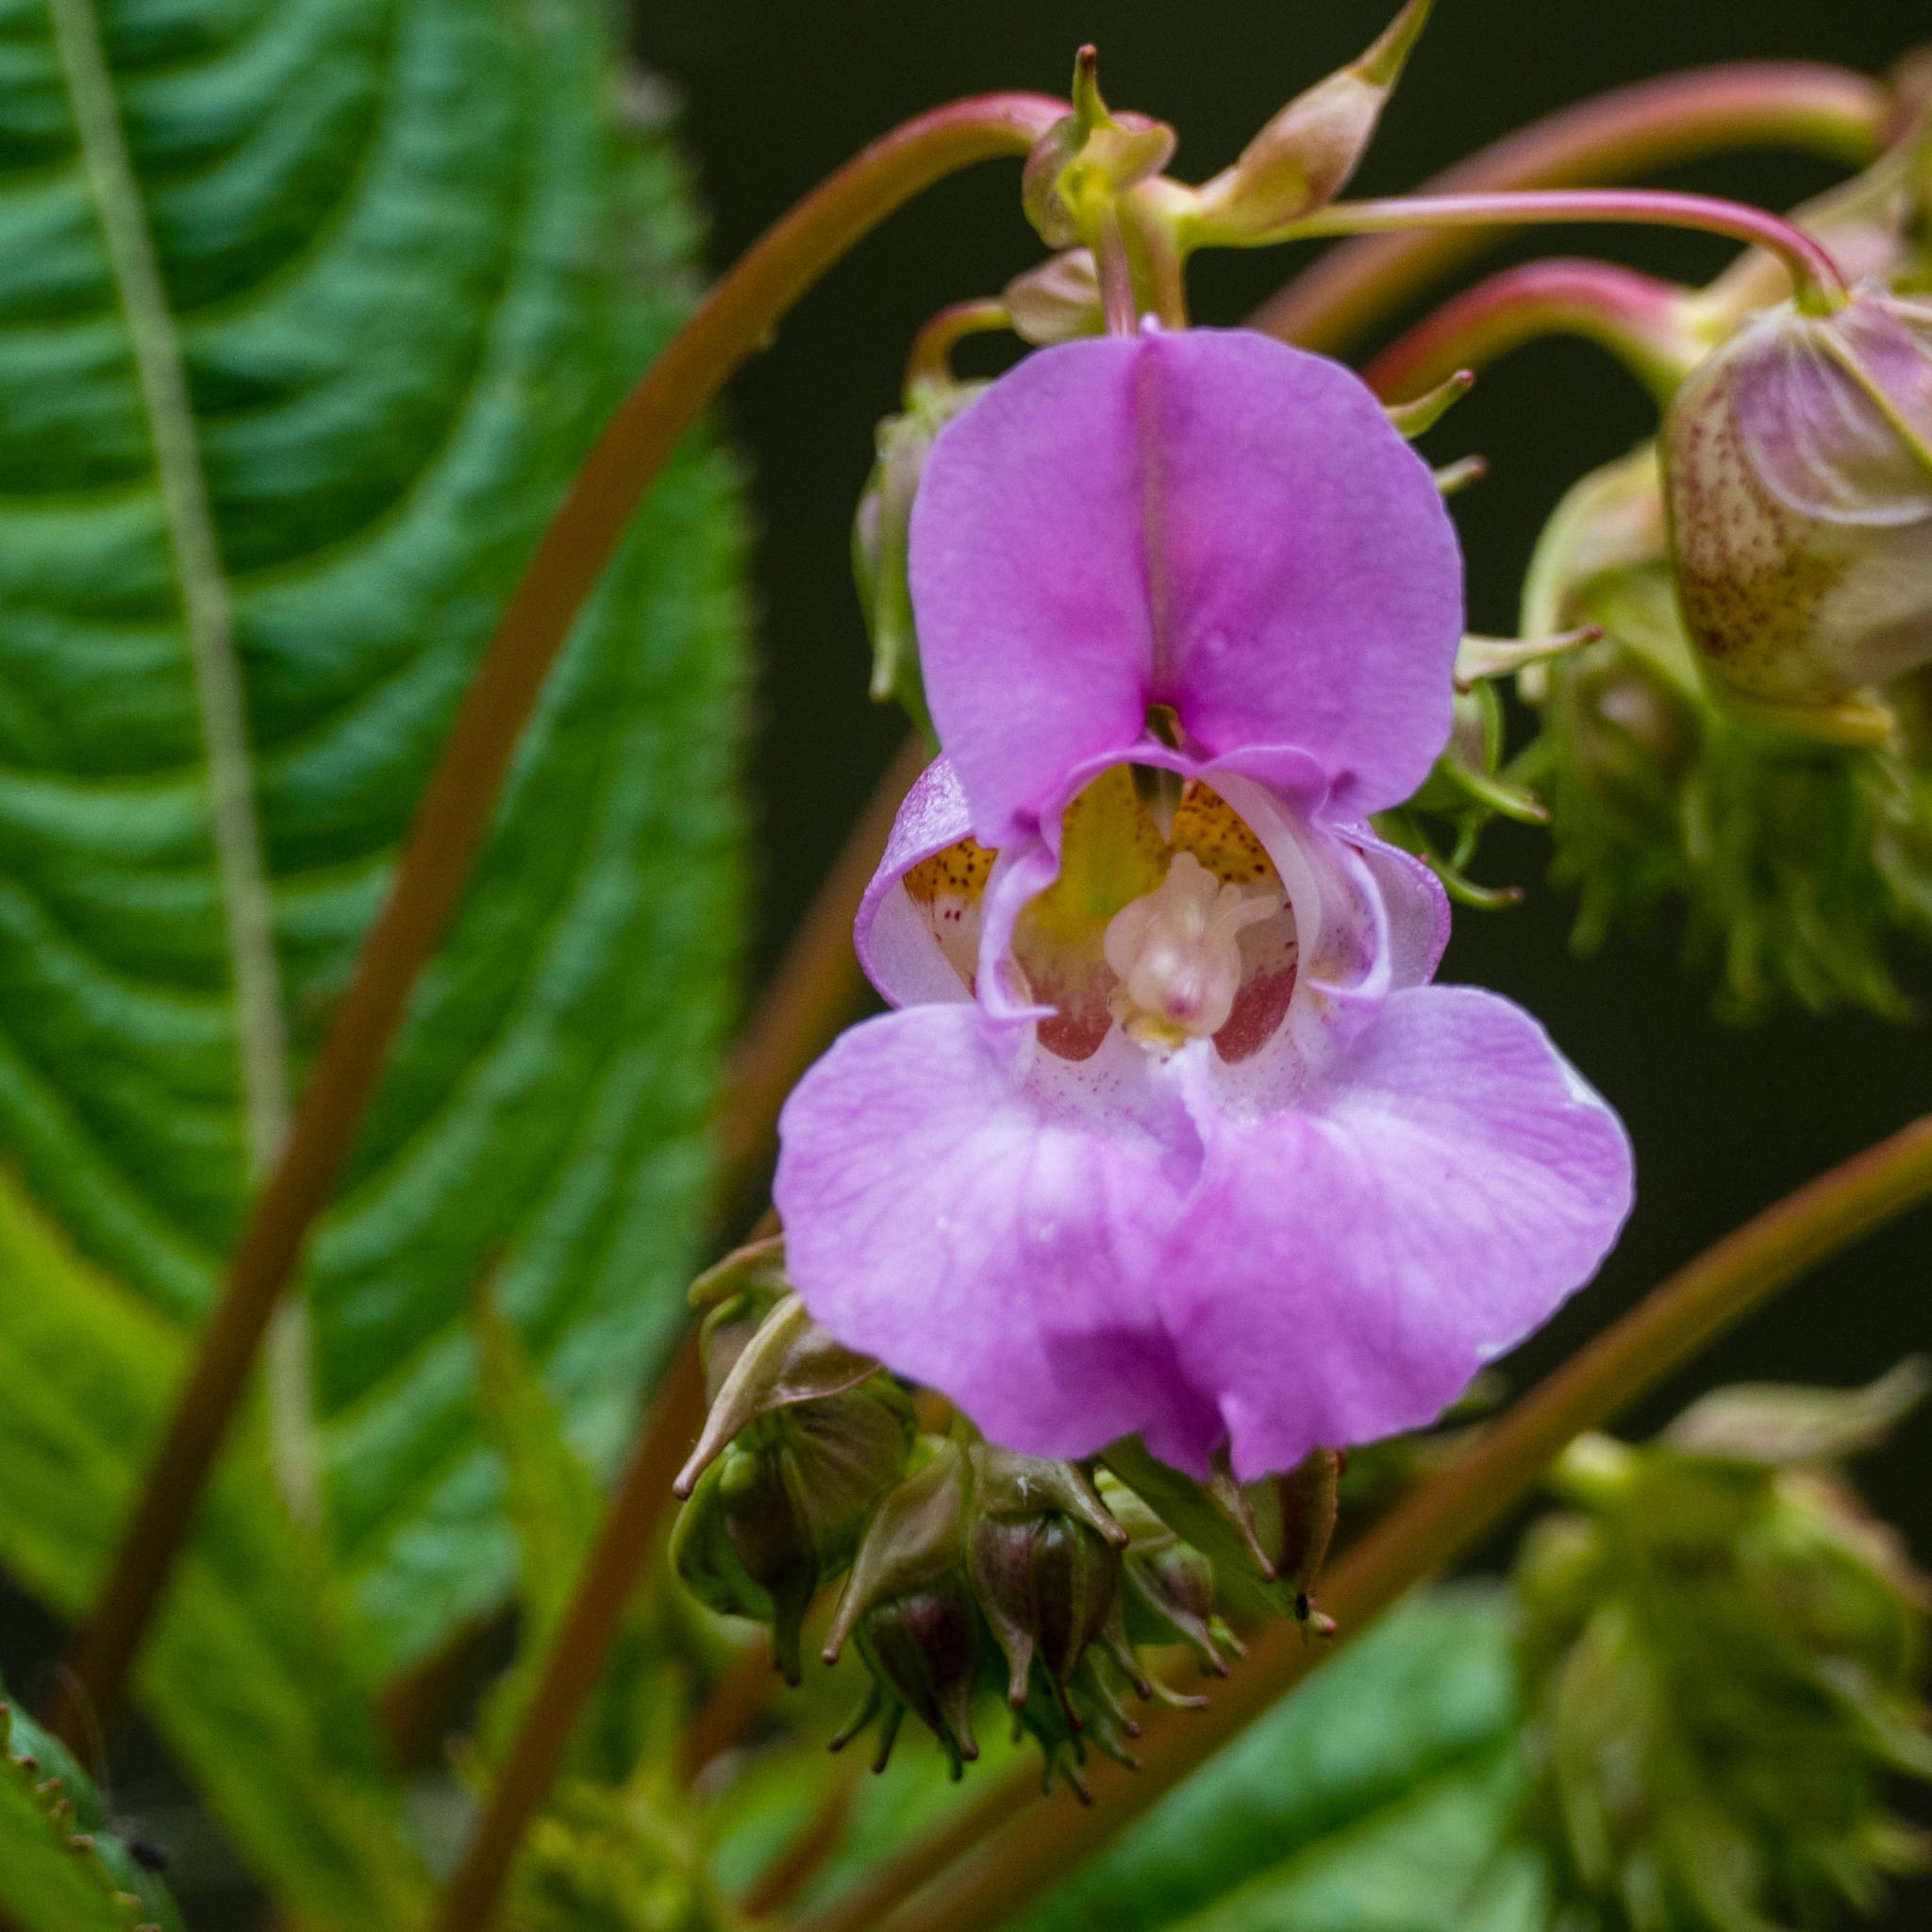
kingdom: Plantae
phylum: Tracheophyta
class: Magnoliopsida
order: Ericales
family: Balsaminaceae
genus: Impatiens
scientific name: Impatiens glandulifera
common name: Himalayan balsam
